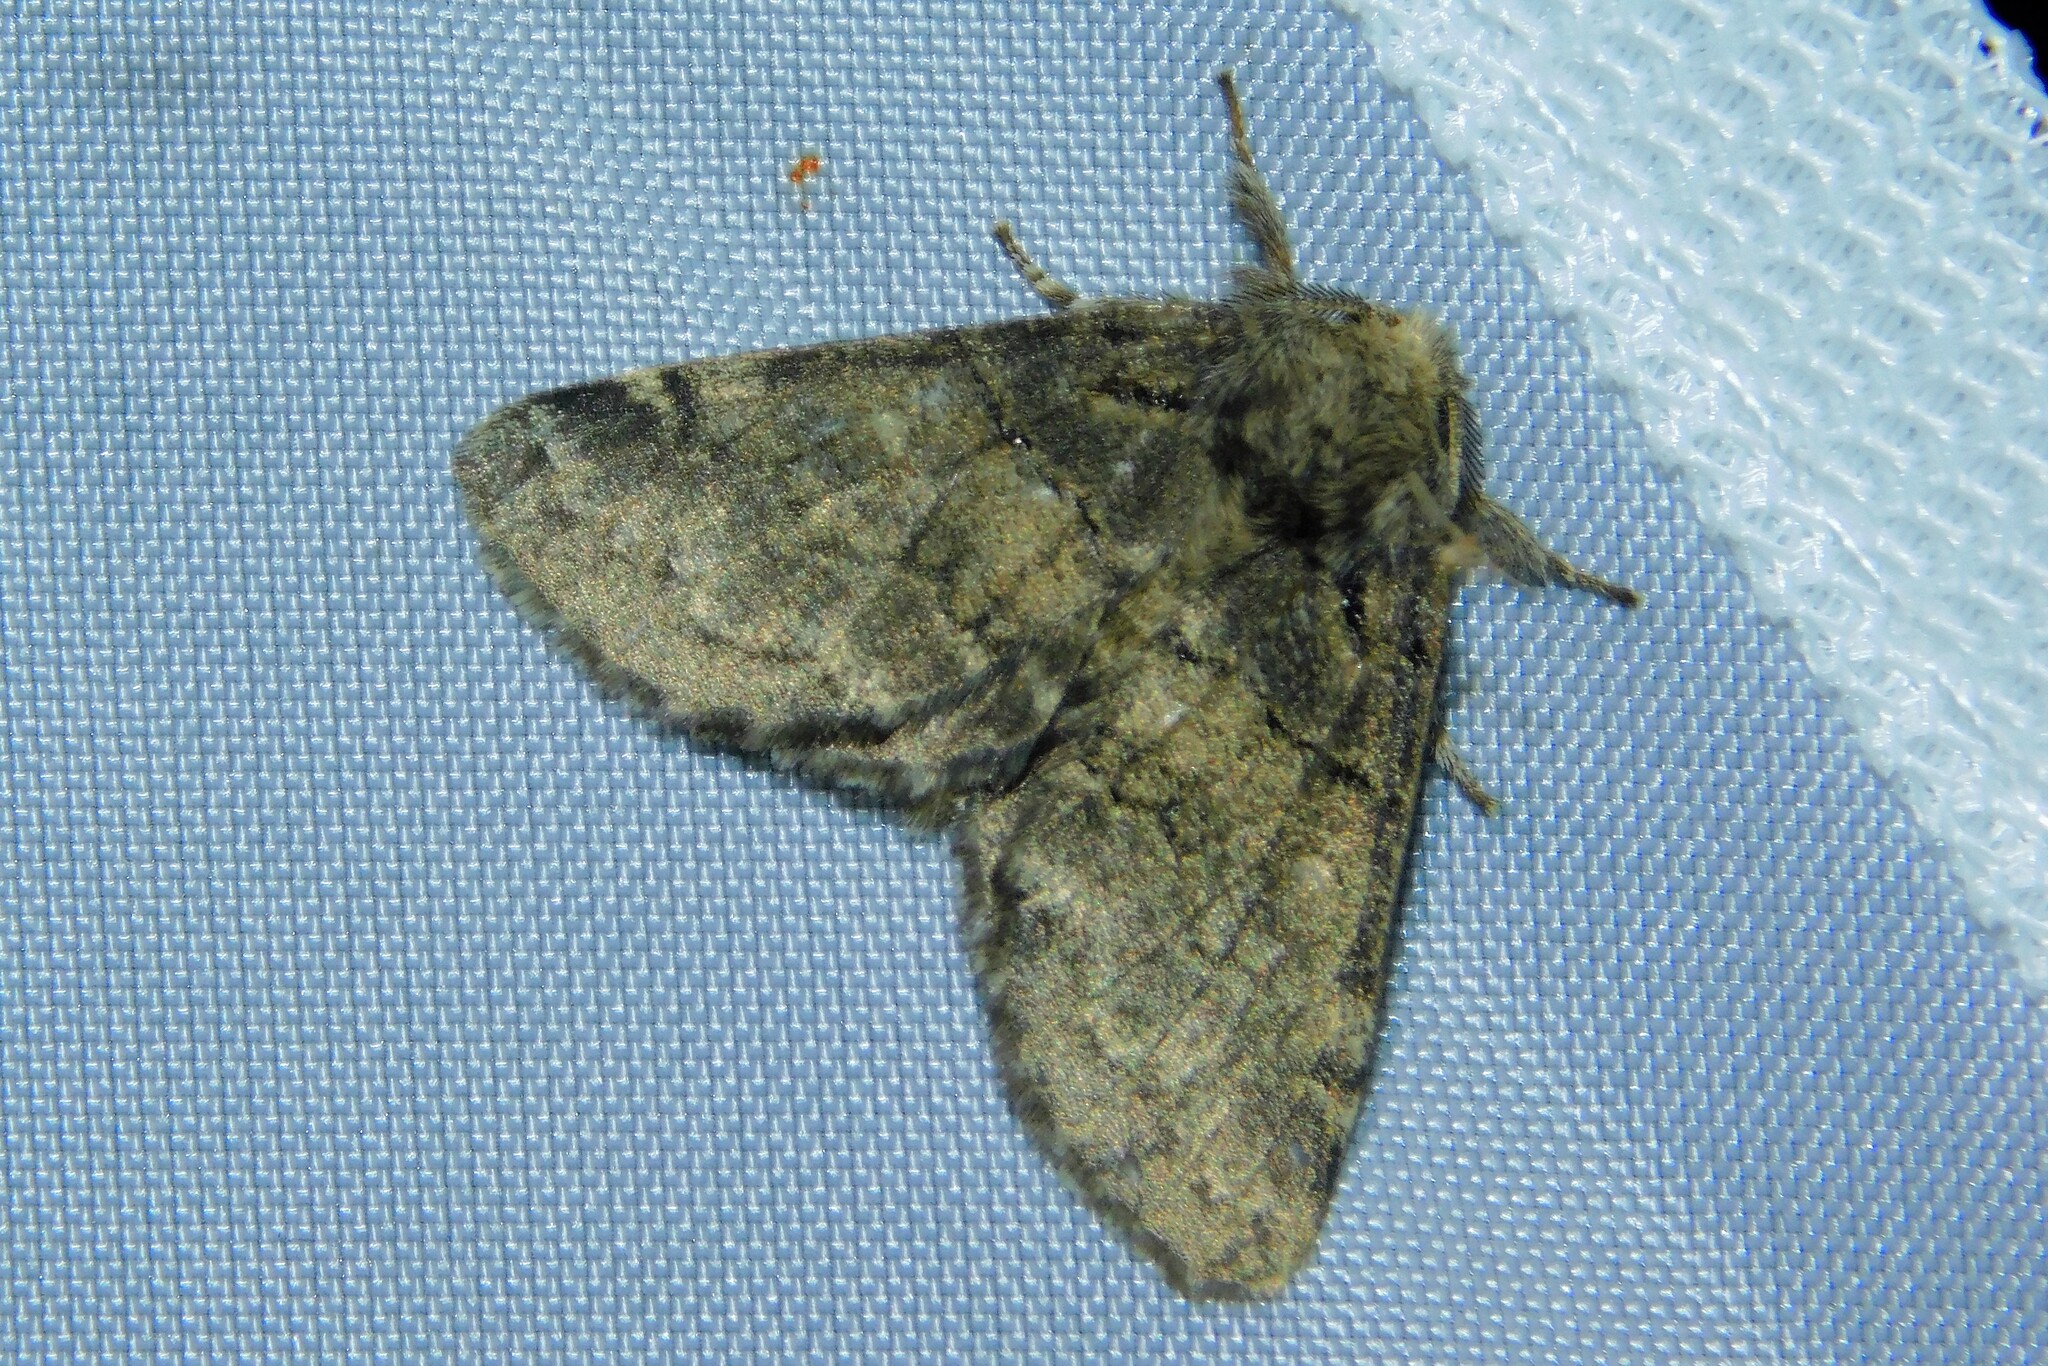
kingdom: Animalia
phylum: Arthropoda
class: Insecta
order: Lepidoptera
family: Notodontidae
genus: Gluphisia
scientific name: Gluphisia crenata
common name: Dusky marbled brown
